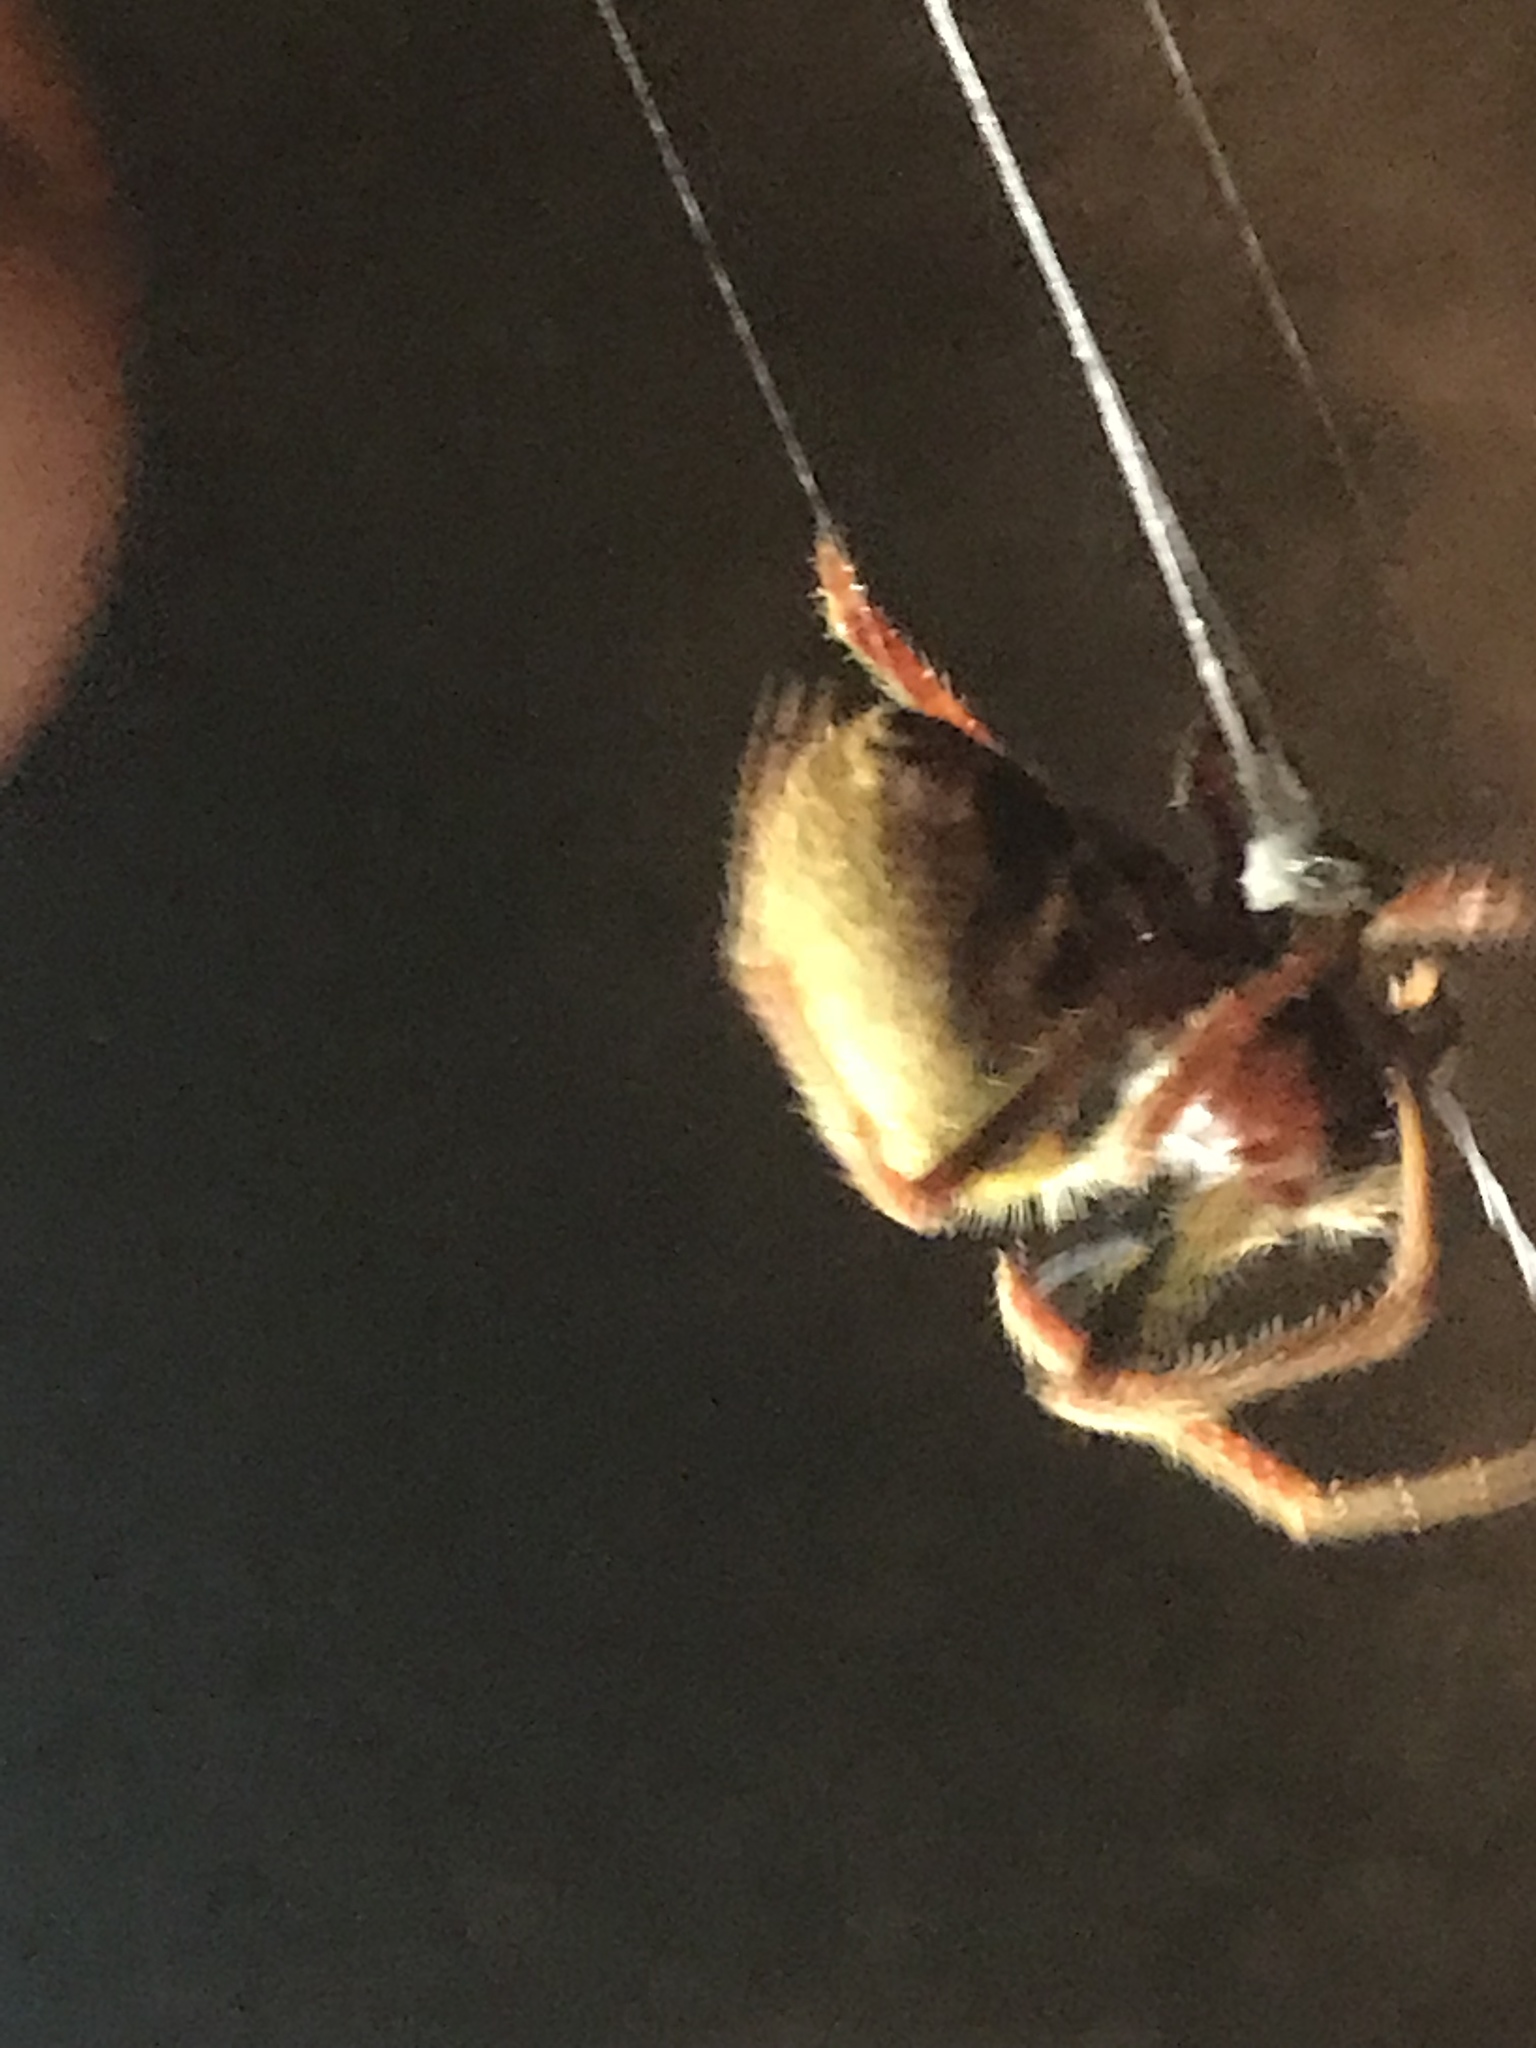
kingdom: Animalia
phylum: Arthropoda
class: Arachnida
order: Araneae
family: Araneidae
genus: Eriophora
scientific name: Eriophora ravilla
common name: Orb weavers
